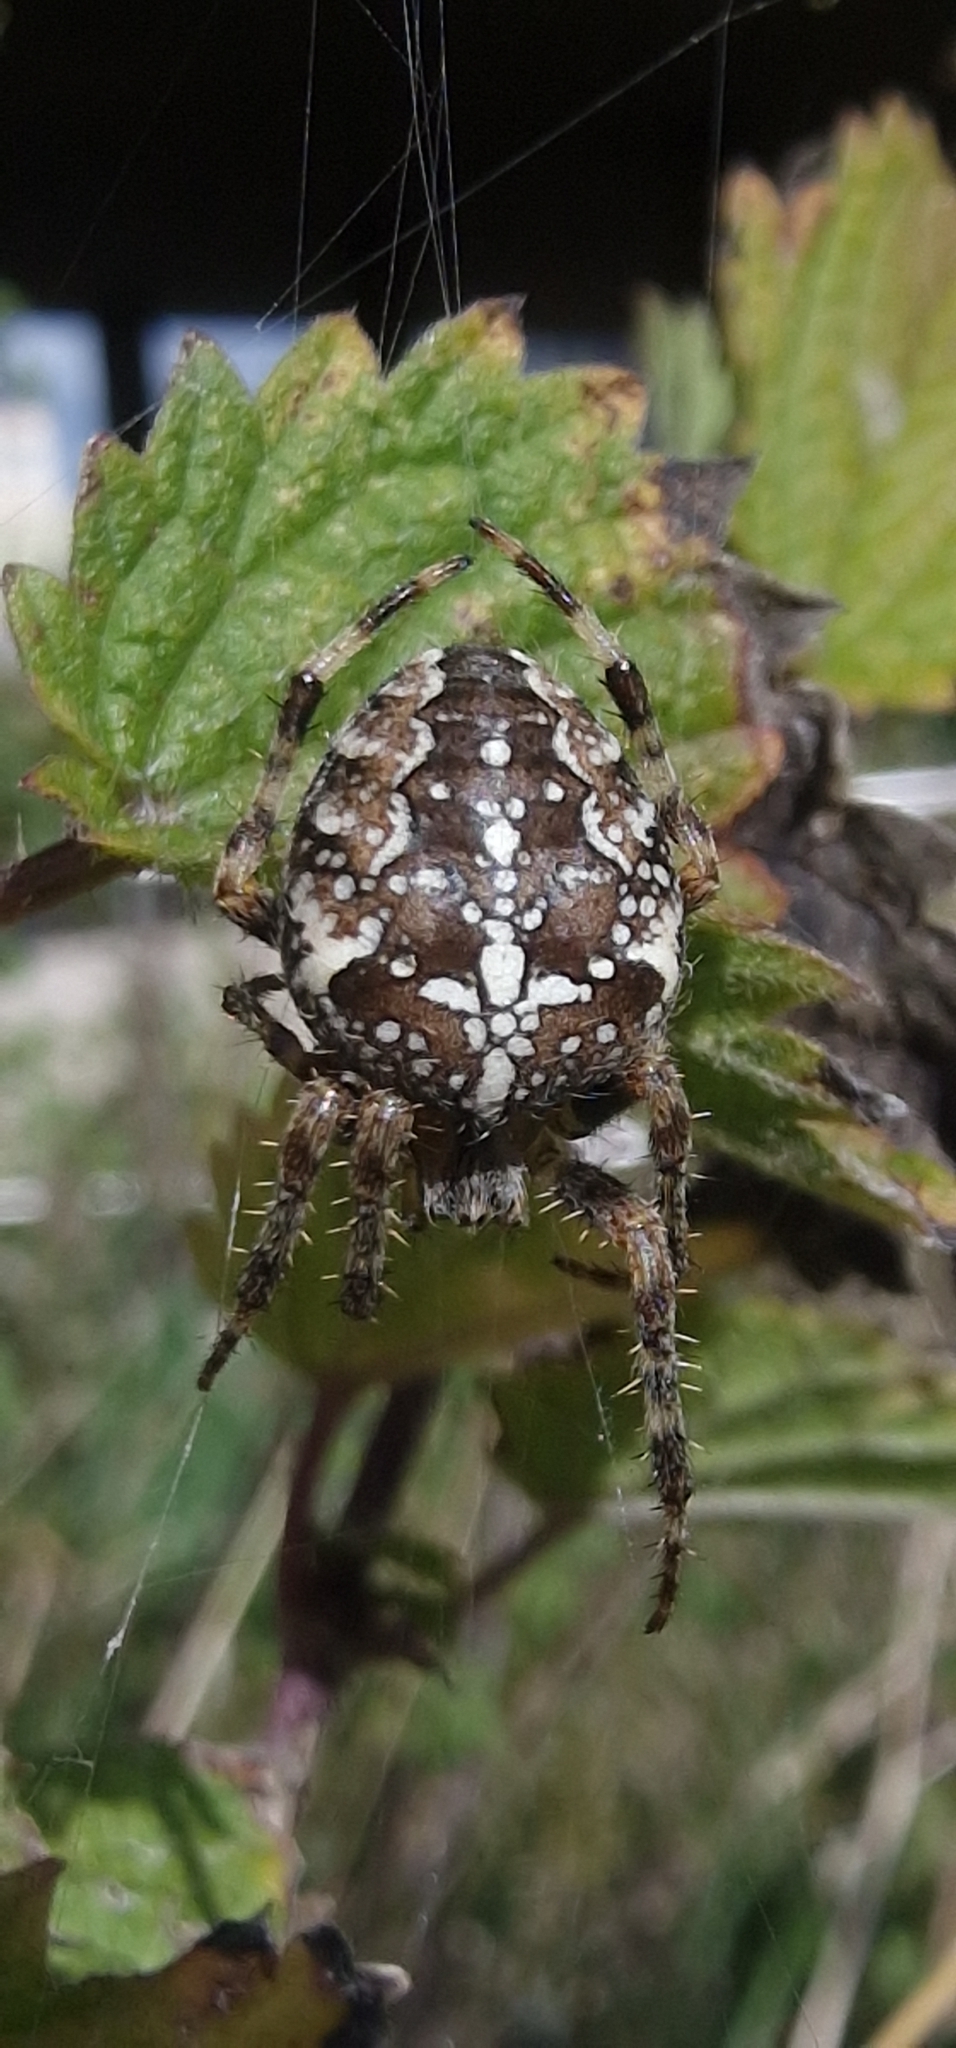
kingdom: Animalia
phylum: Arthropoda
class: Arachnida
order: Araneae
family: Araneidae
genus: Araneus
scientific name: Araneus diadematus
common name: Cross orbweaver
